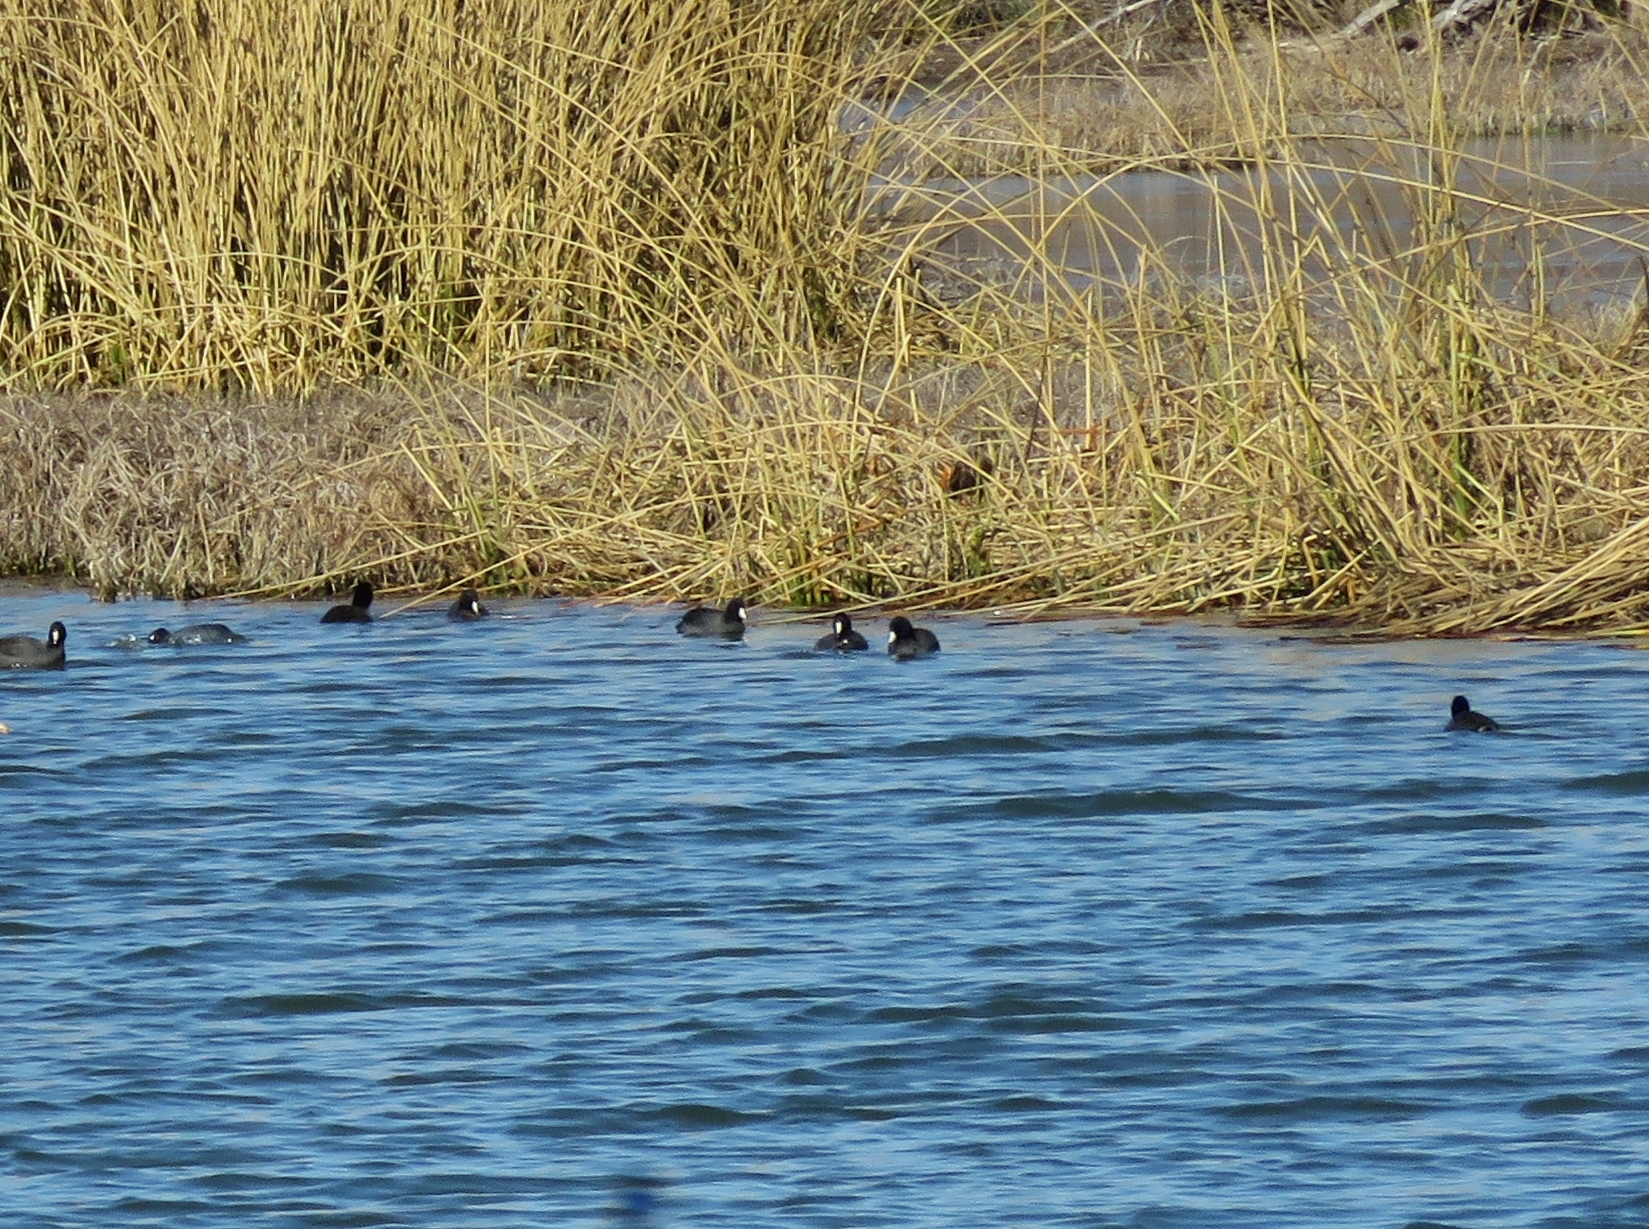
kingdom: Animalia
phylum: Chordata
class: Aves
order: Gruiformes
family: Rallidae
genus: Fulica
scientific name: Fulica americana
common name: American coot
